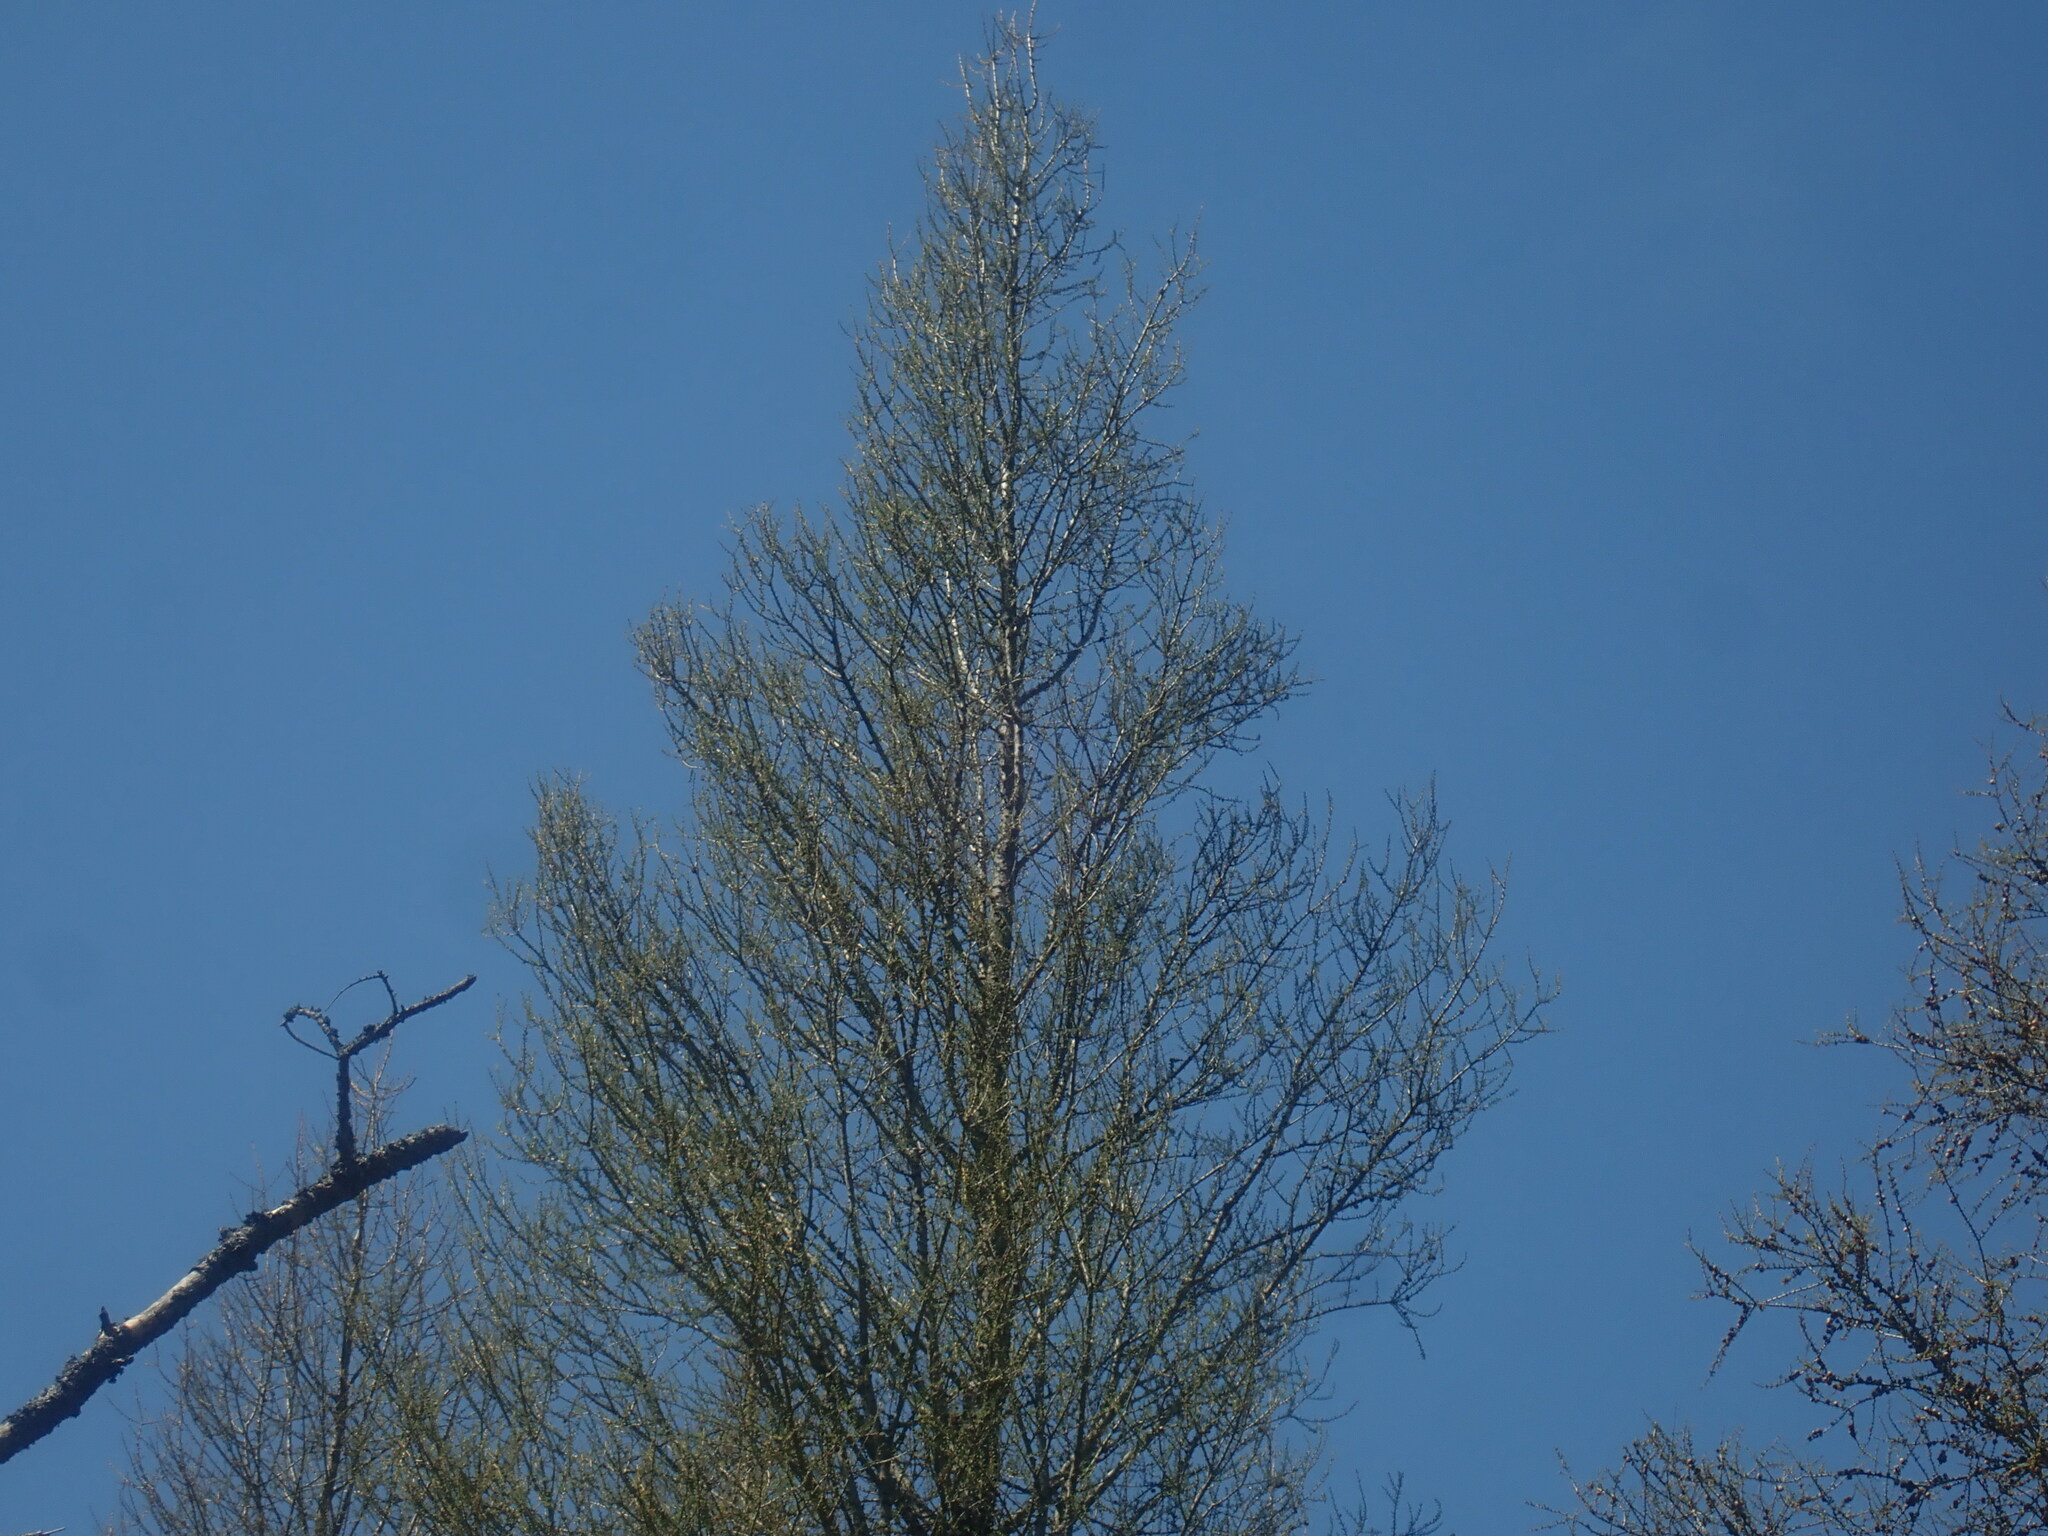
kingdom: Plantae
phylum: Tracheophyta
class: Pinopsida
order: Pinales
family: Pinaceae
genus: Larix
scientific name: Larix laricina
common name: American larch
